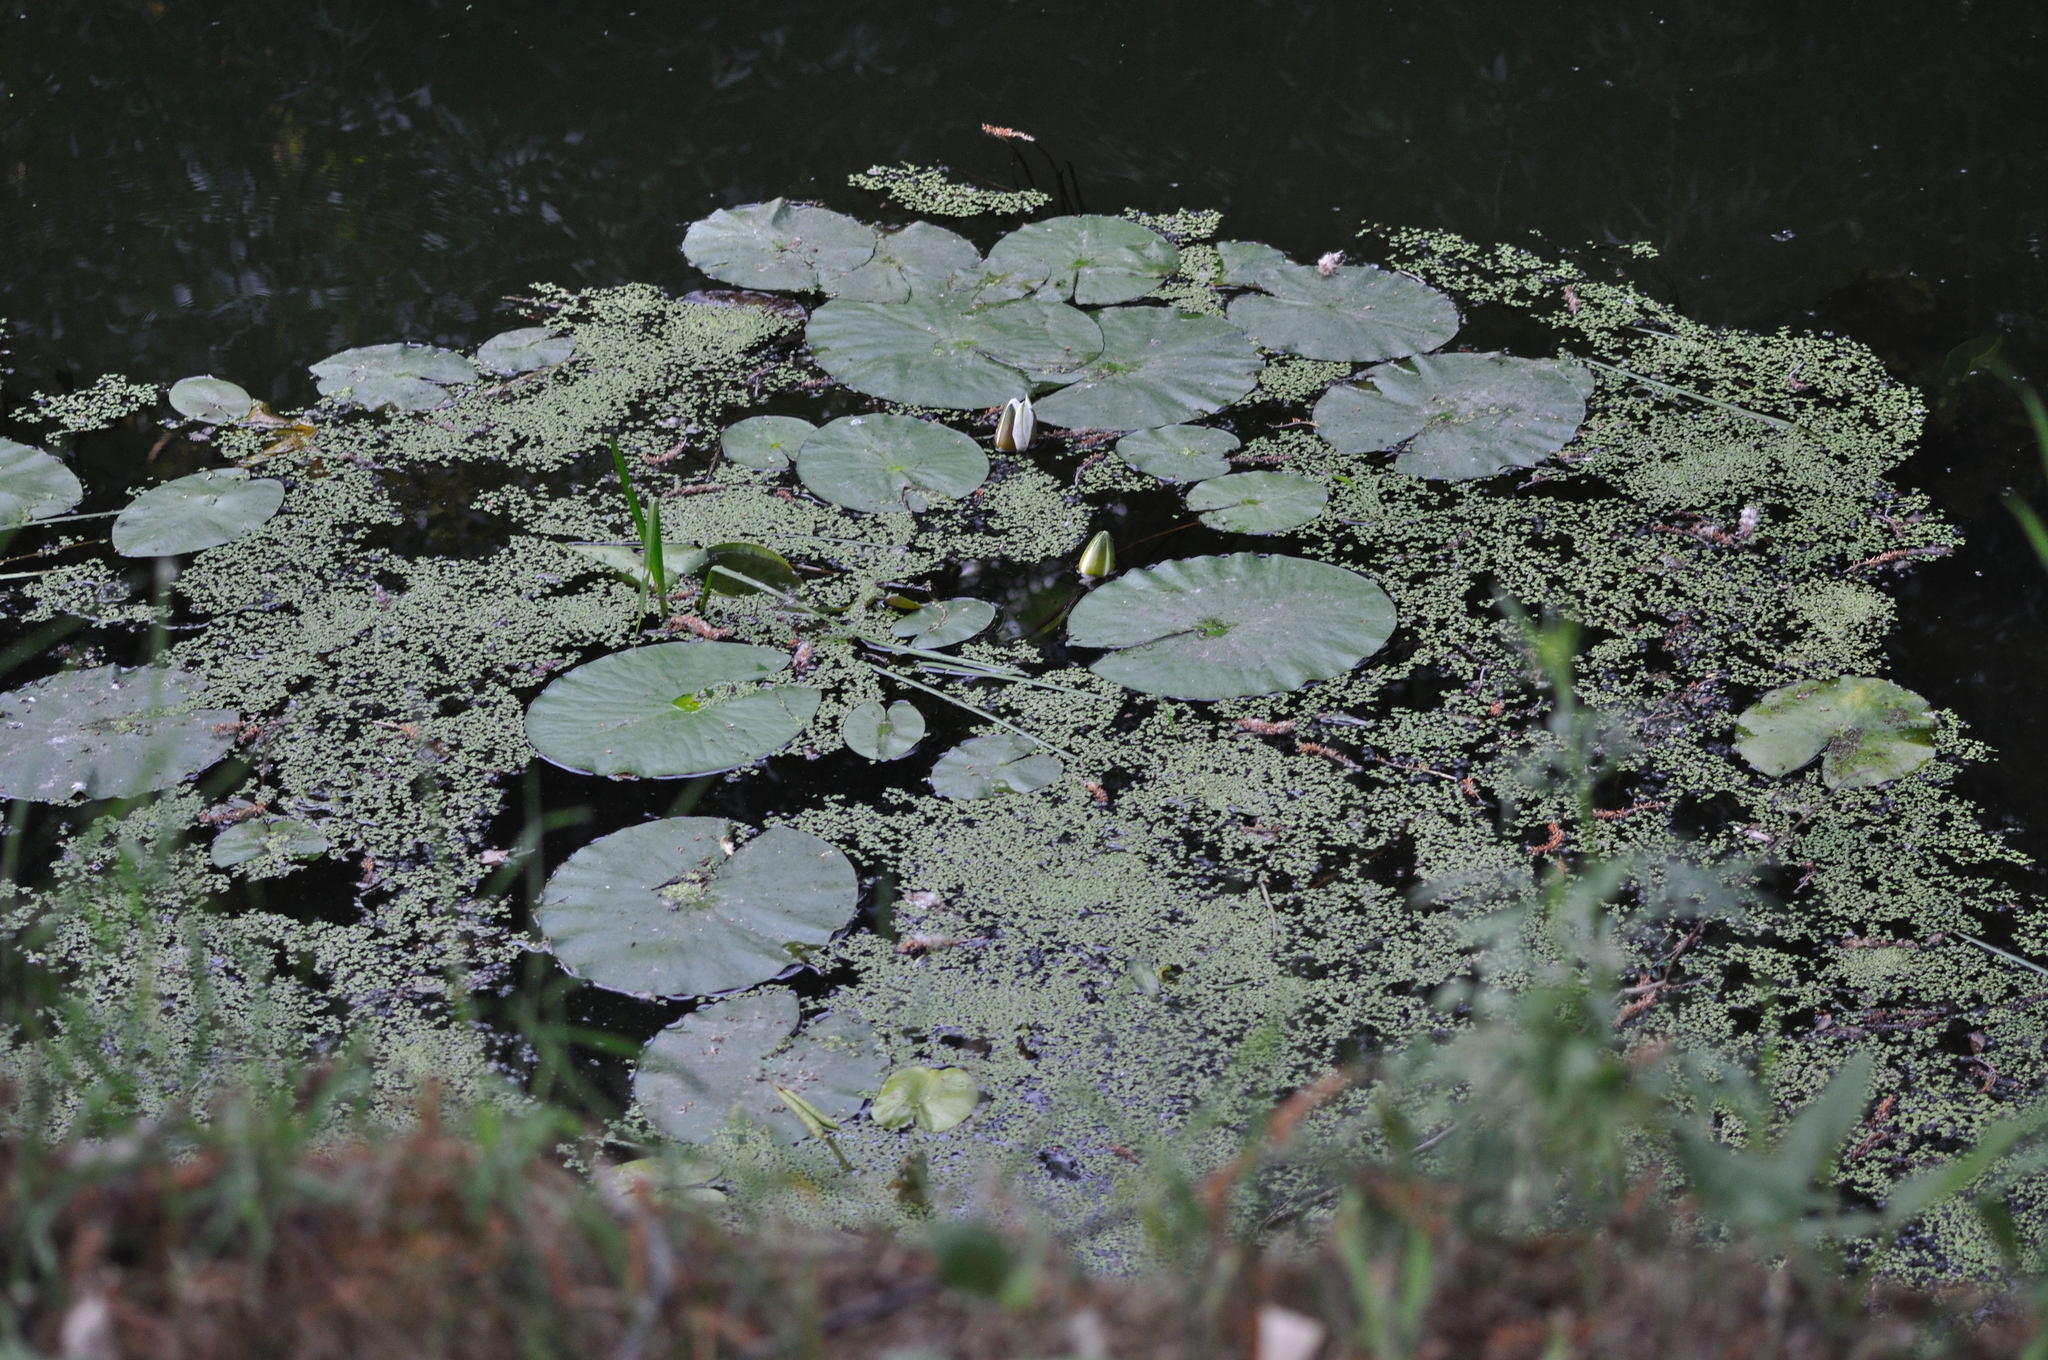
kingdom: Plantae
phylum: Tracheophyta
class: Magnoliopsida
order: Nymphaeales
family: Nymphaeaceae
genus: Nymphaea
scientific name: Nymphaea alba
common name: White water-lily
